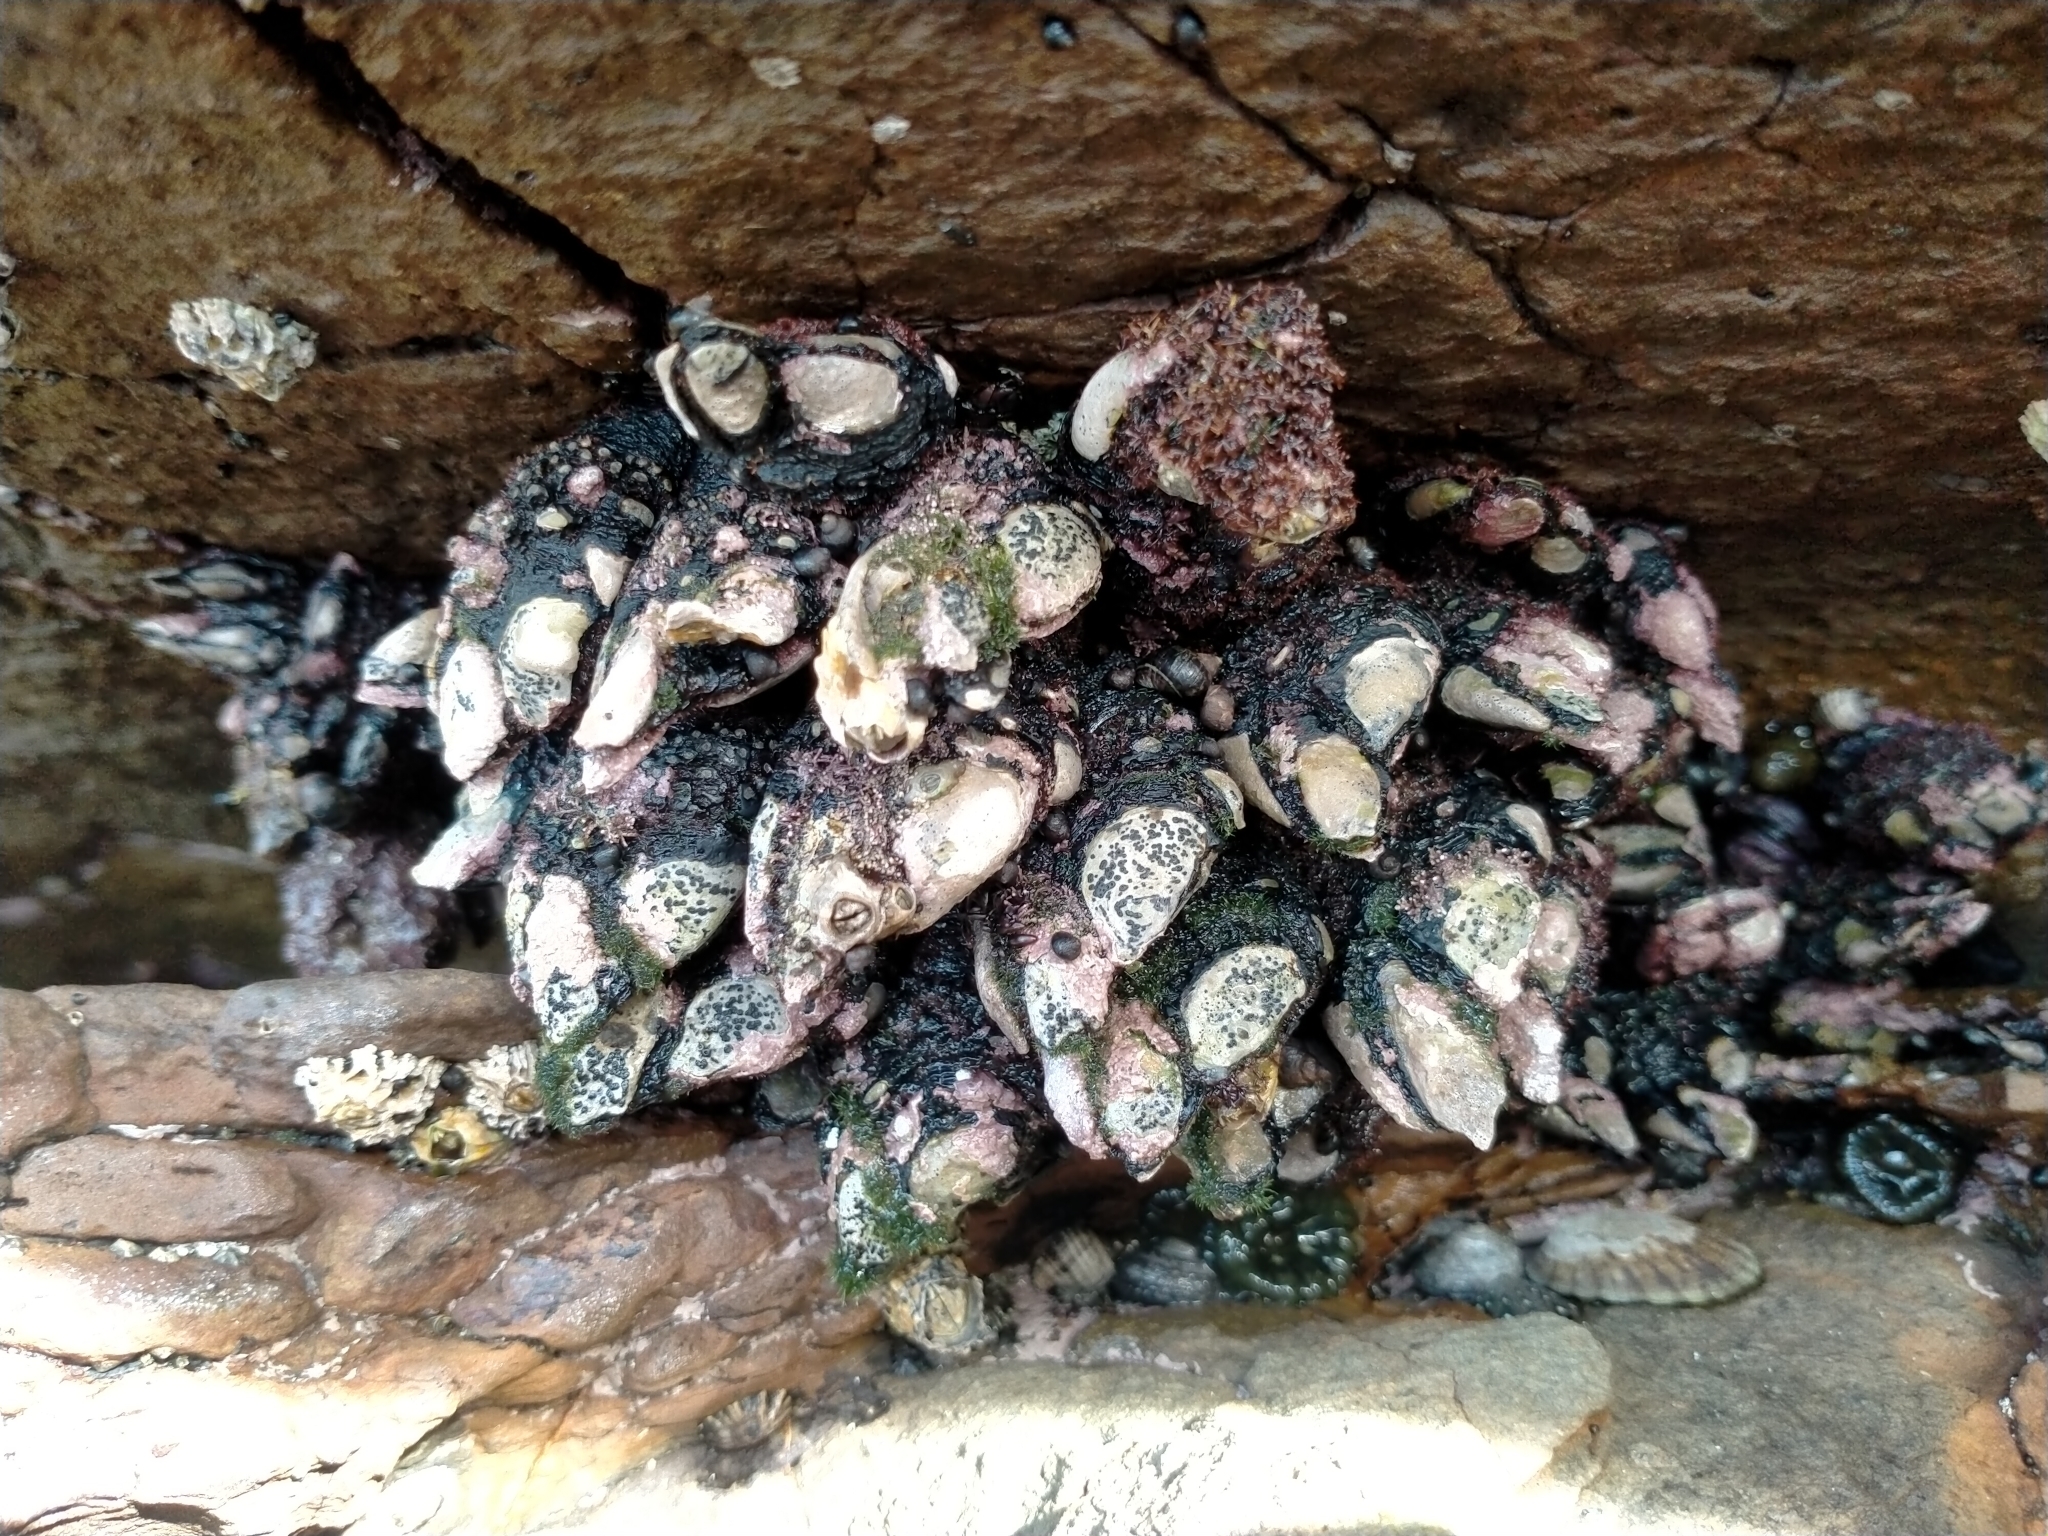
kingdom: Animalia
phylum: Arthropoda
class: Maxillopoda
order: Pedunculata
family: Calanticidae
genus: Calantica
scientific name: Calantica spinosa
